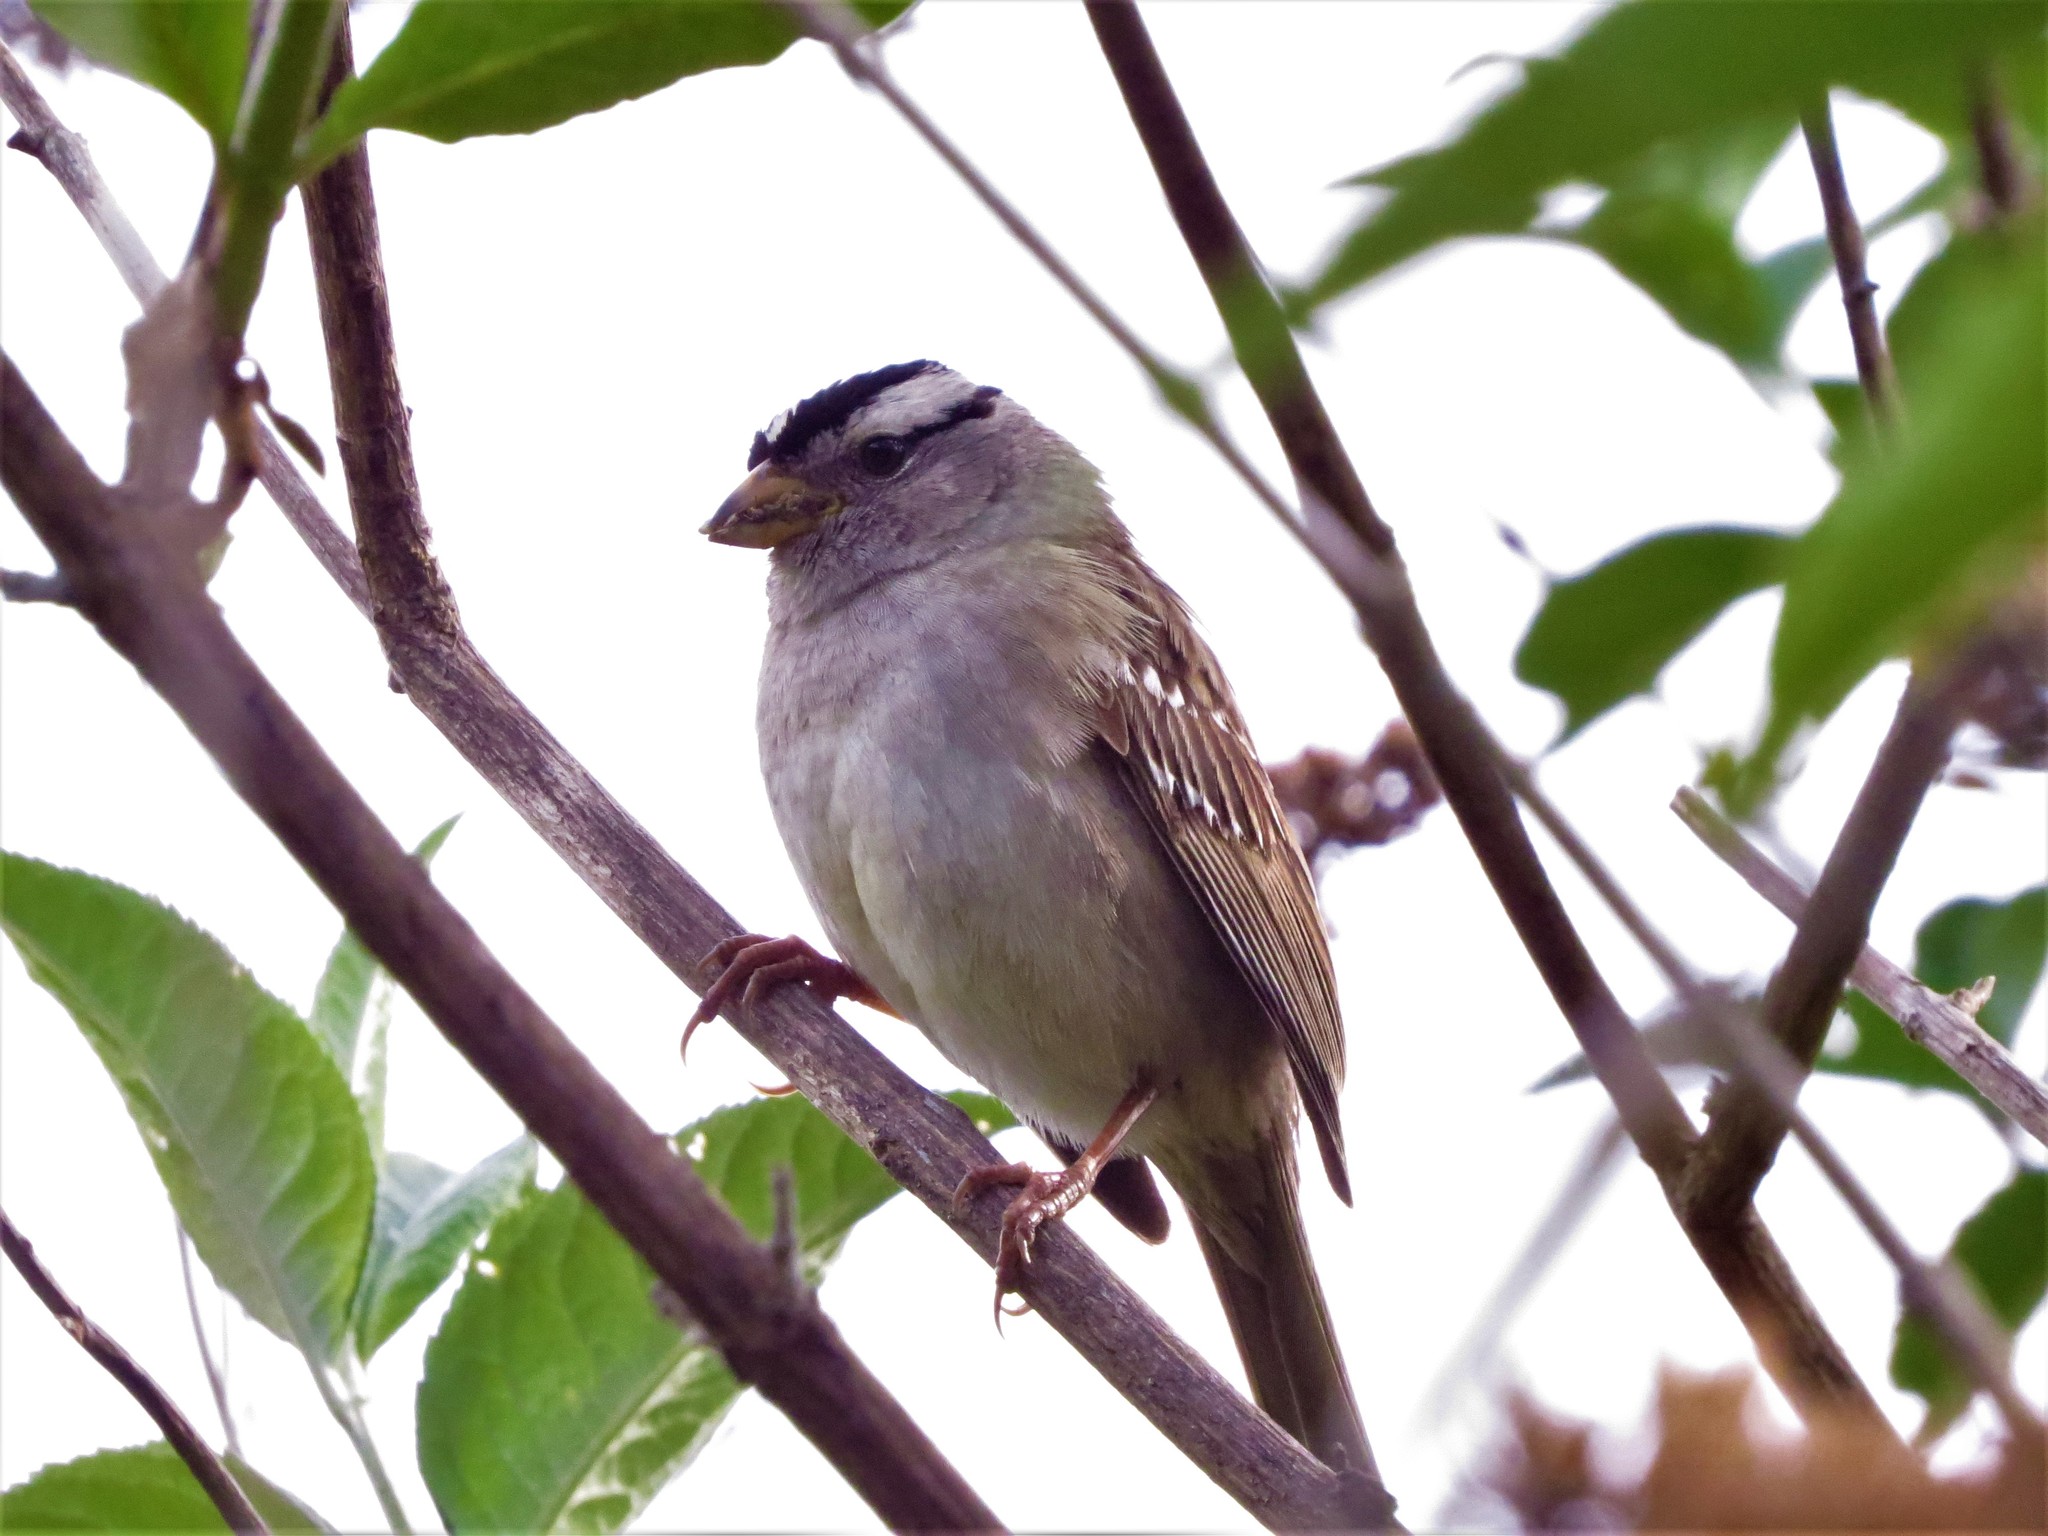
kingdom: Animalia
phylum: Chordata
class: Aves
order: Passeriformes
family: Passerellidae
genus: Zonotrichia
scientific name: Zonotrichia leucophrys
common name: White-crowned sparrow
